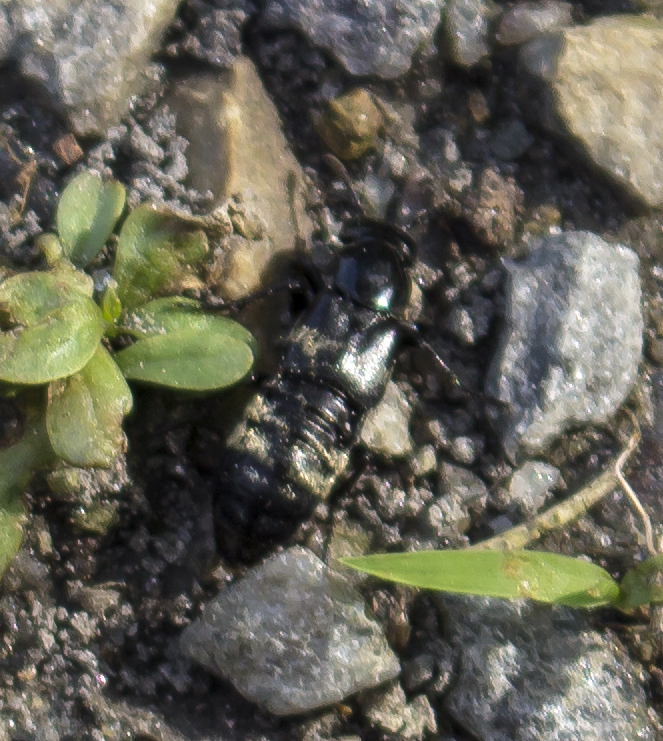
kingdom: Animalia
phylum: Arthropoda
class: Insecta
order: Coleoptera
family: Staphylinidae
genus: Creophilus
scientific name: Creophilus maxillosus
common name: Hairy rove beetle
